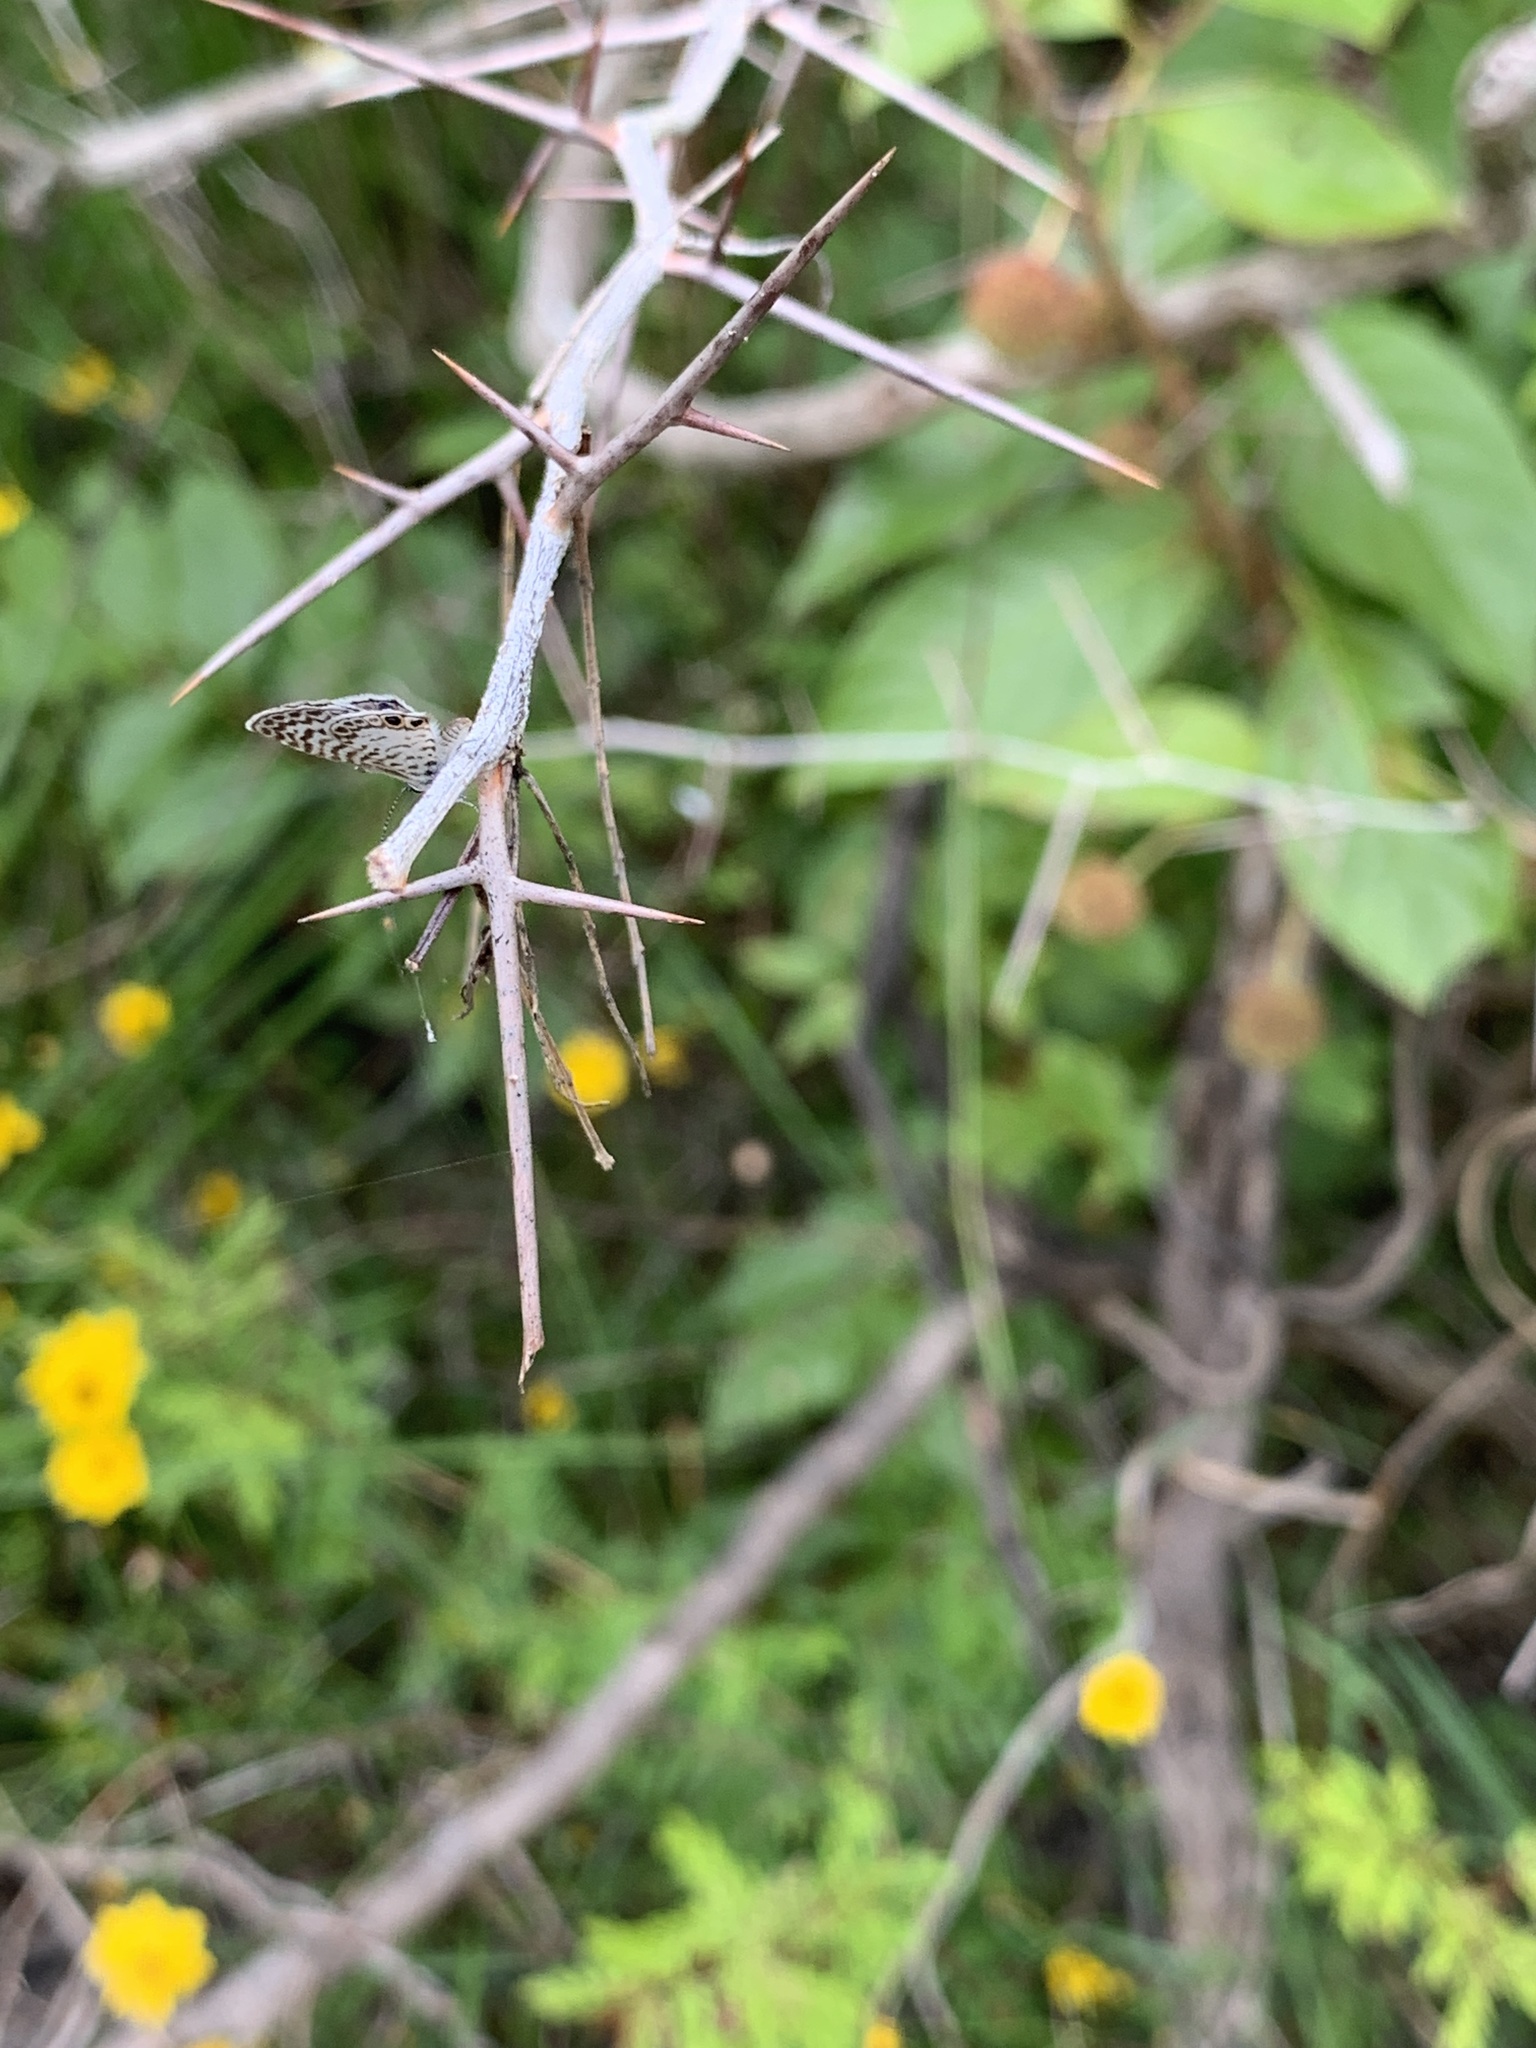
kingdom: Animalia
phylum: Arthropoda
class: Insecta
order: Lepidoptera
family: Lycaenidae
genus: Leptotes
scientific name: Leptotes cassius
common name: Cassius blue
